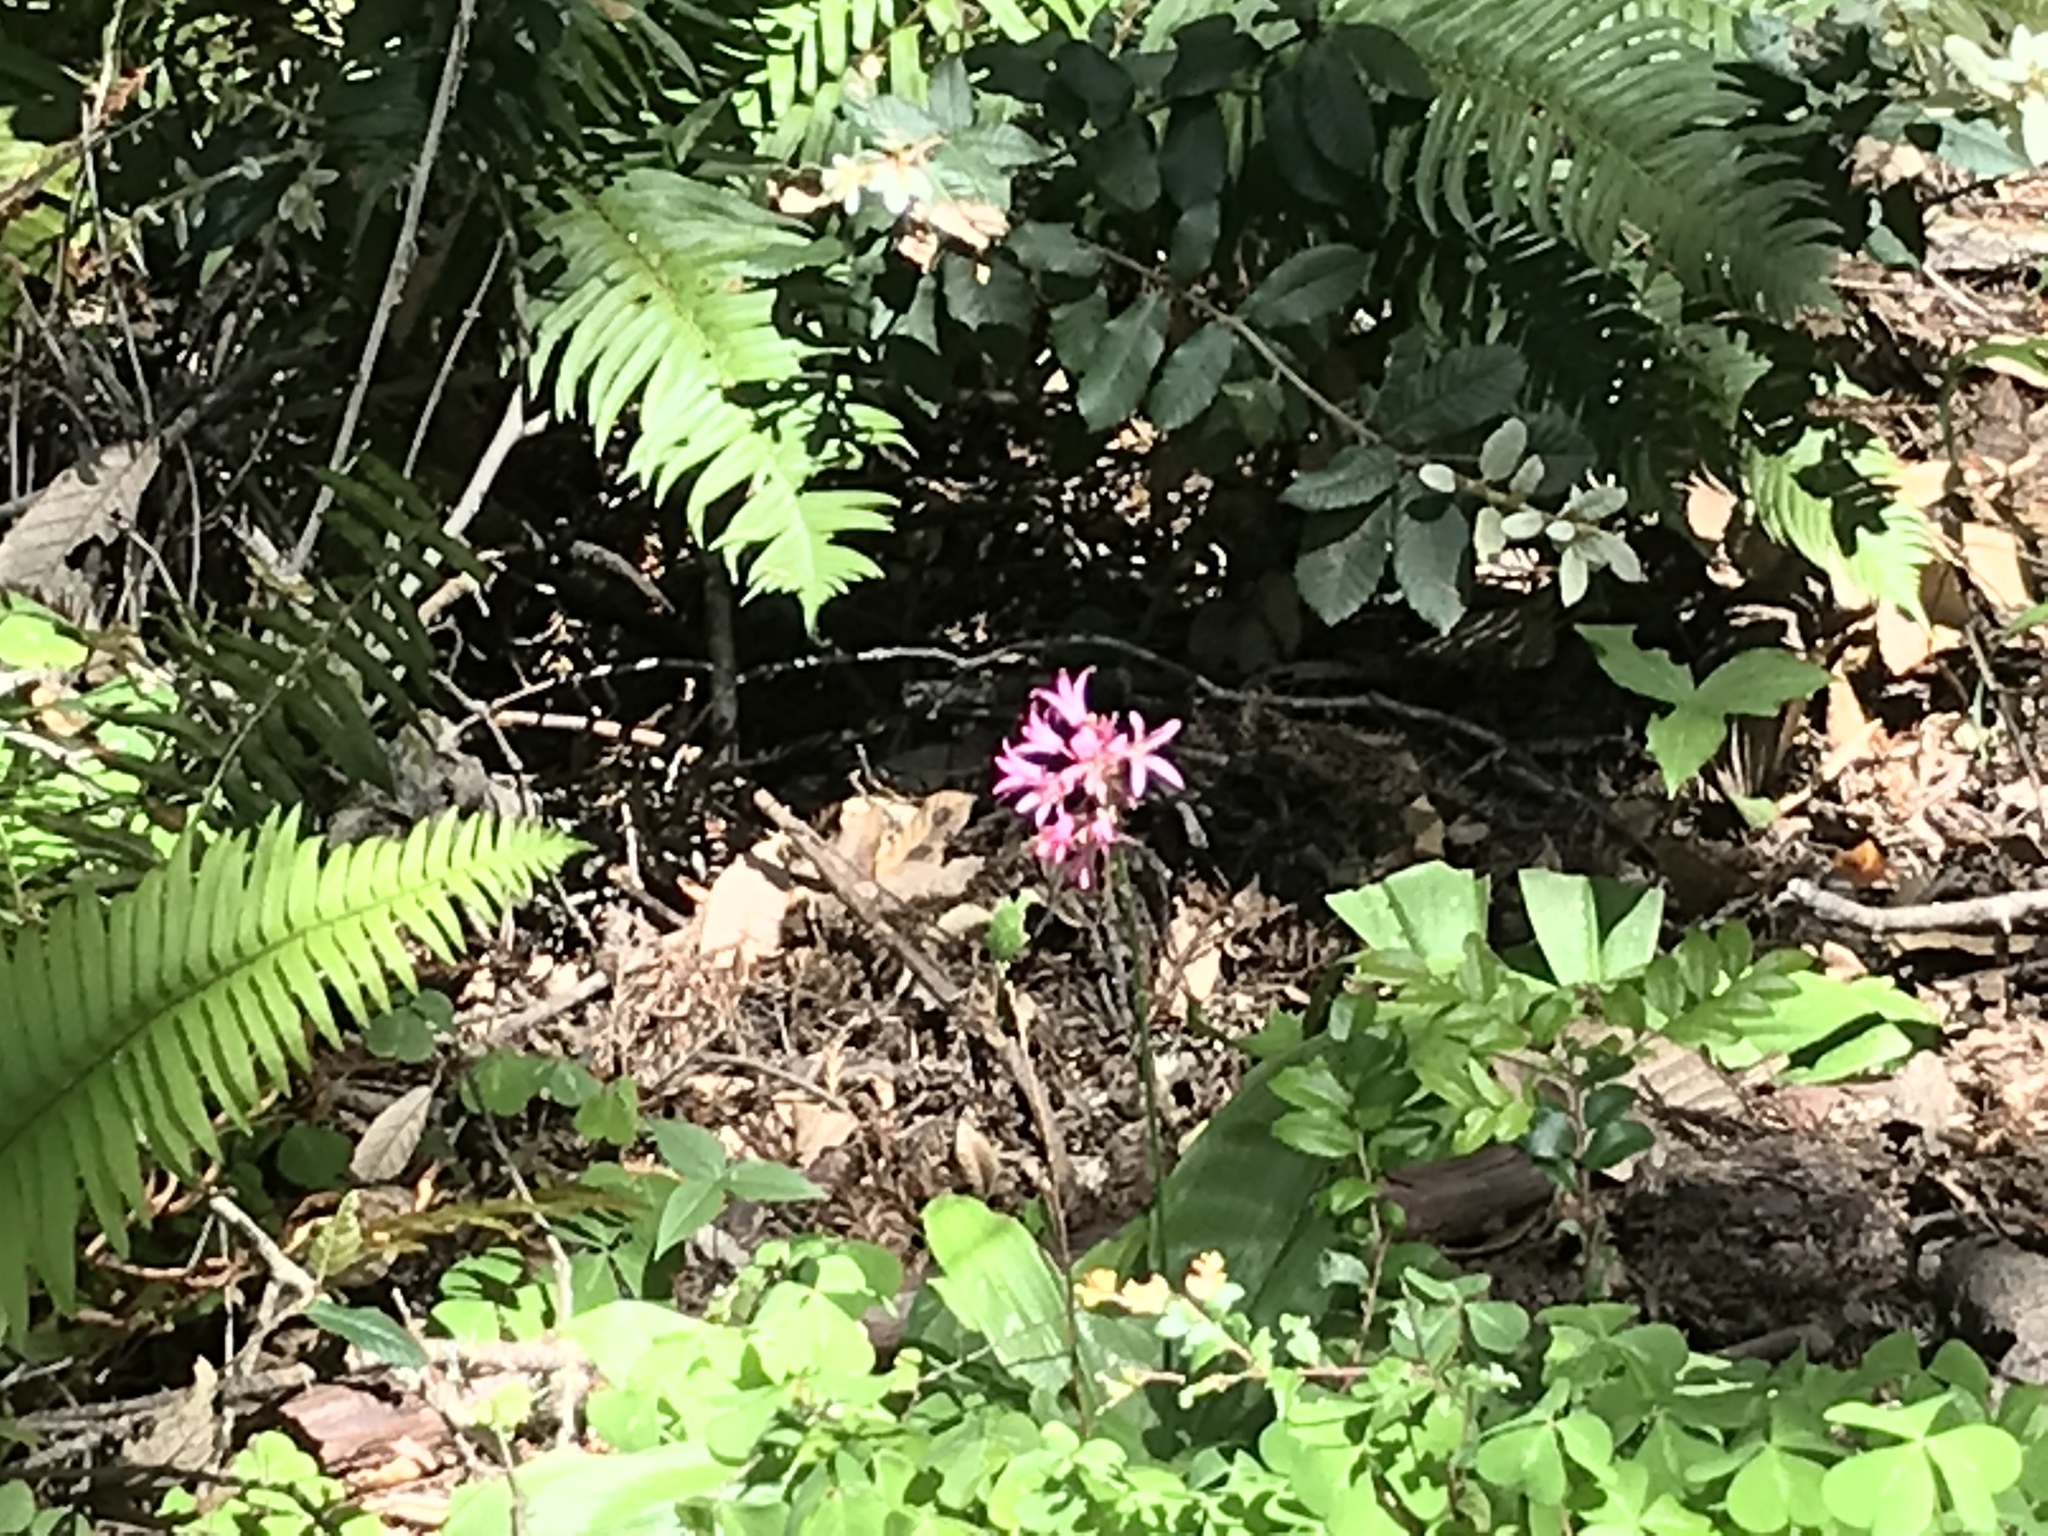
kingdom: Plantae
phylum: Tracheophyta
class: Liliopsida
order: Liliales
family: Liliaceae
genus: Clintonia
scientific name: Clintonia andrewsiana
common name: Red clintonia
